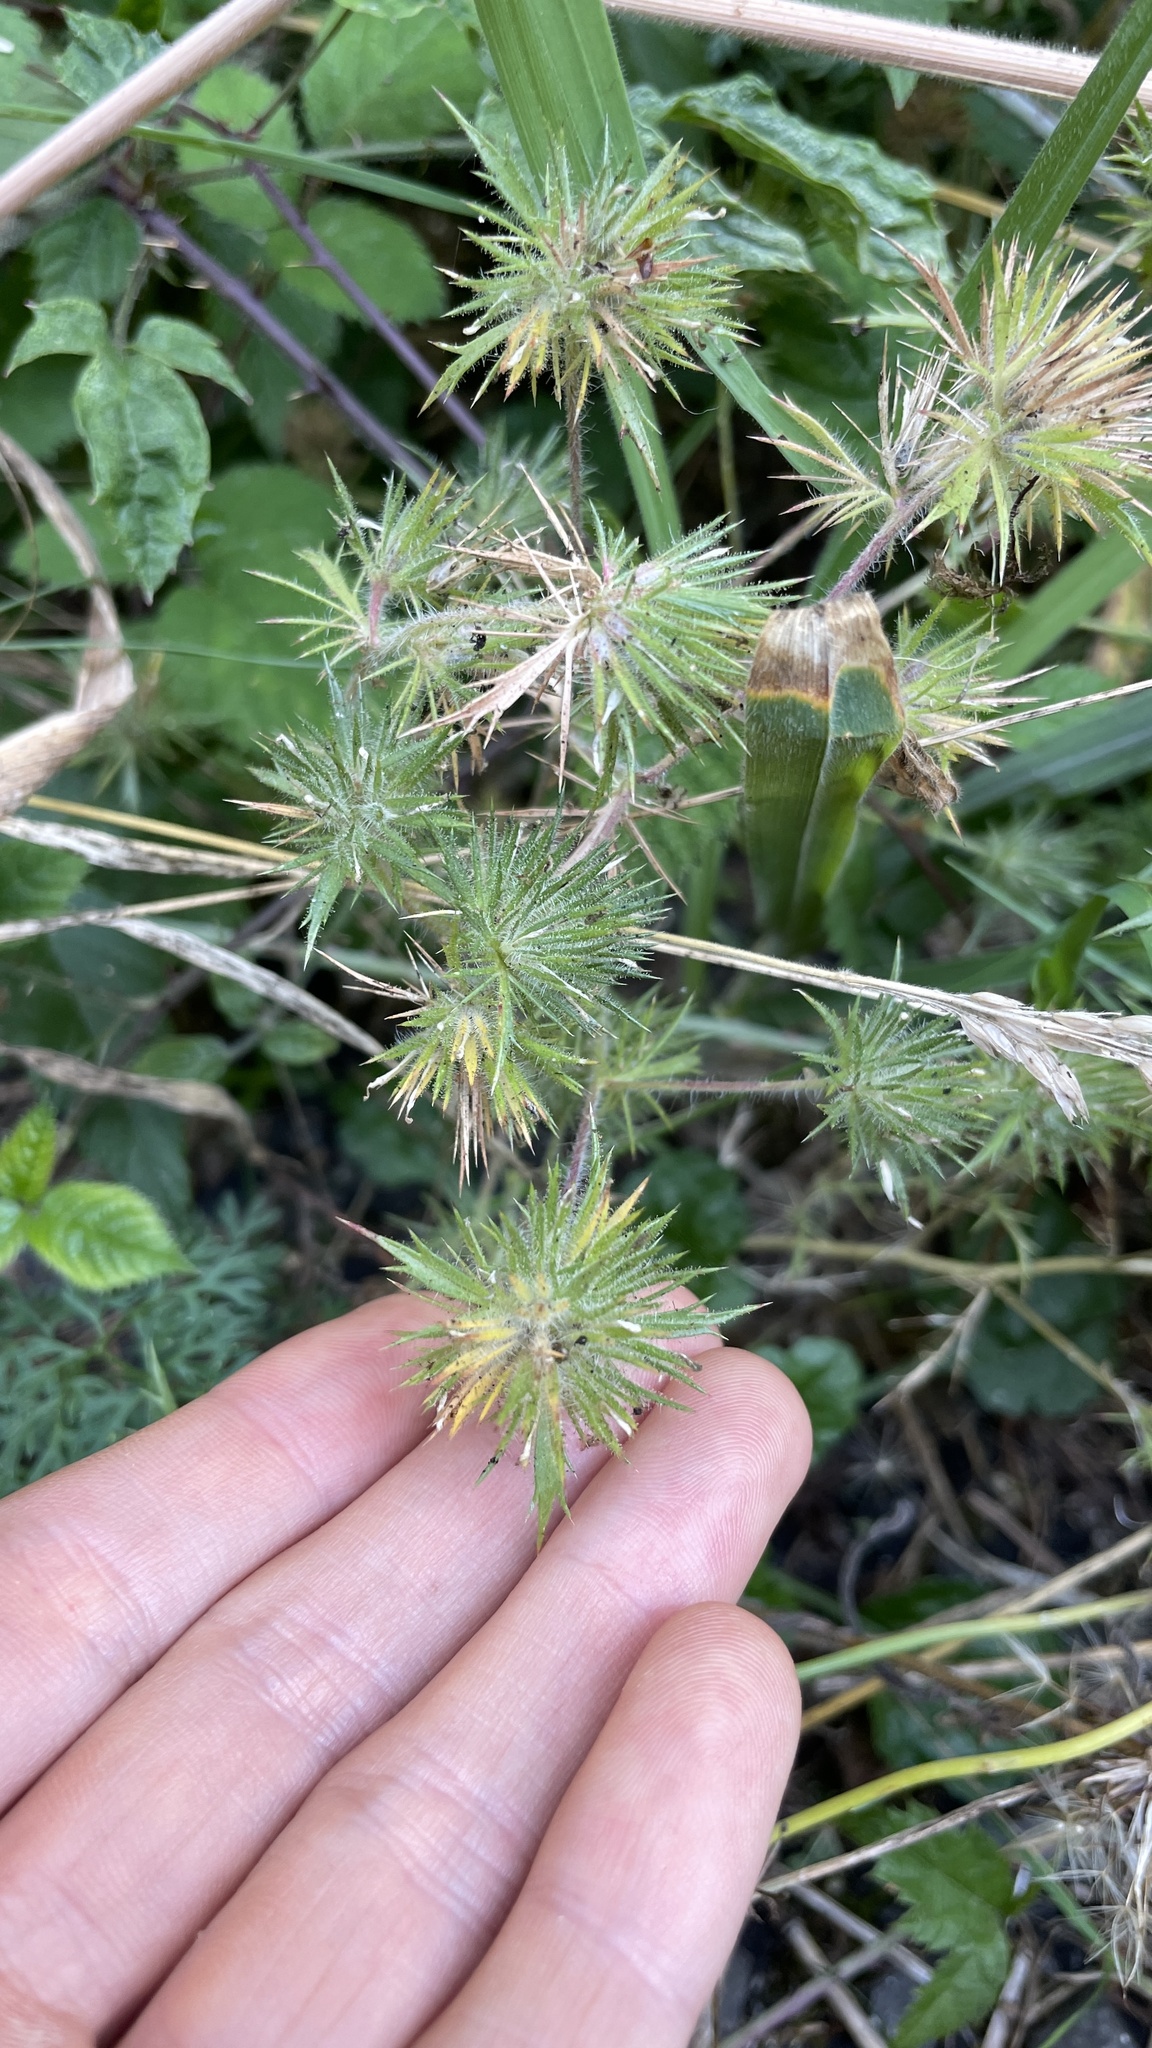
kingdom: Plantae
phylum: Tracheophyta
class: Magnoliopsida
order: Ericales
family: Polemoniaceae
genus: Navarretia
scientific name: Navarretia squarrosa
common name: Skunkweed
